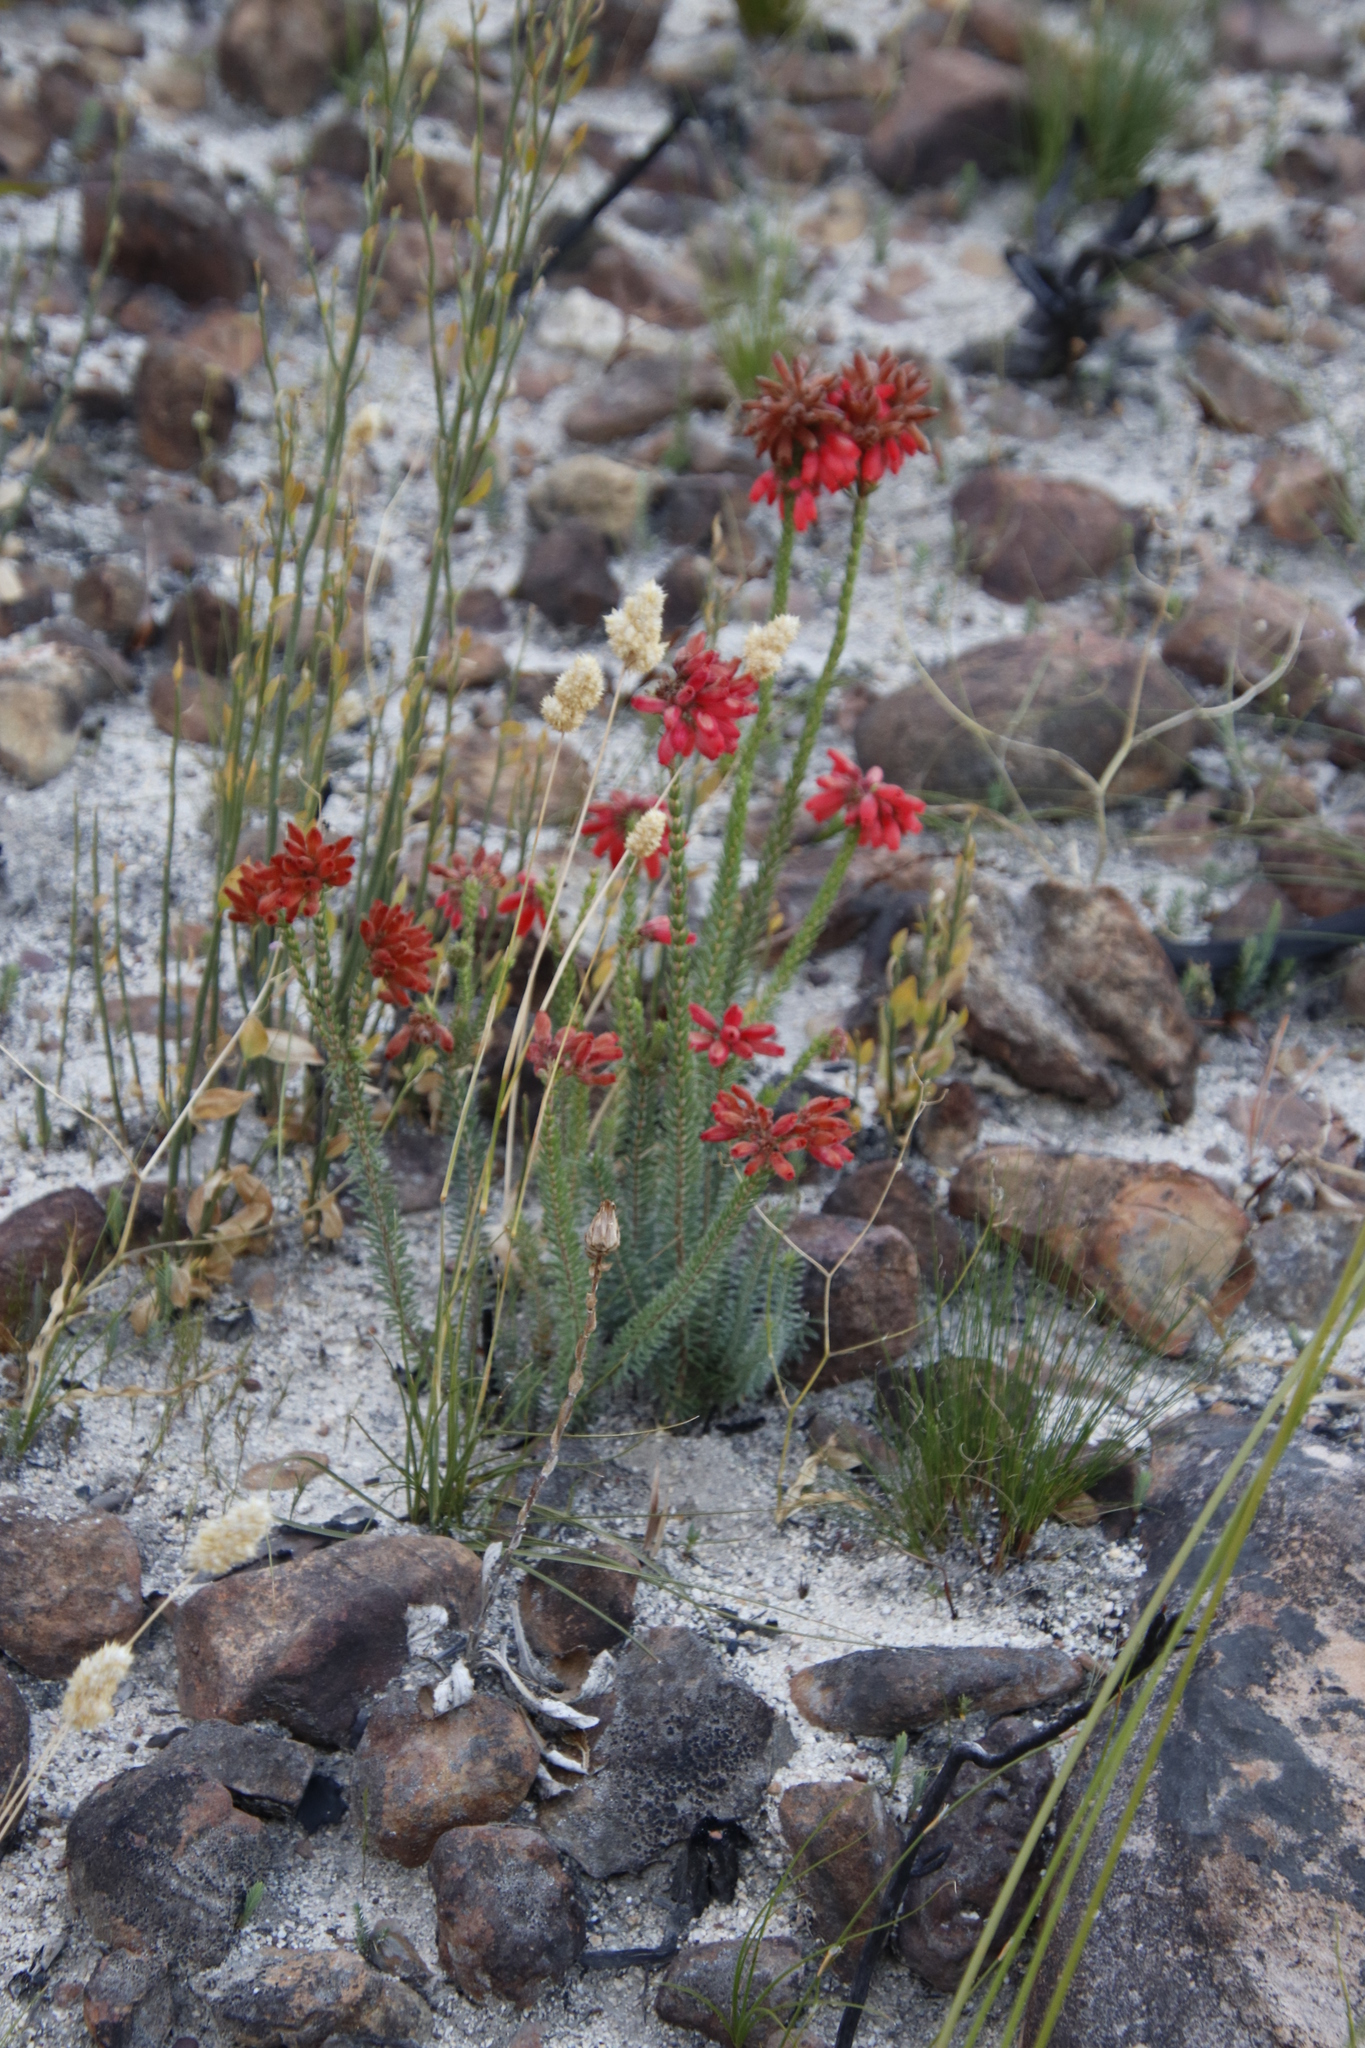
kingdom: Plantae
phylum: Tracheophyta
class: Magnoliopsida
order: Ericales
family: Ericaceae
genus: Erica
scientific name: Erica cerinthoides
